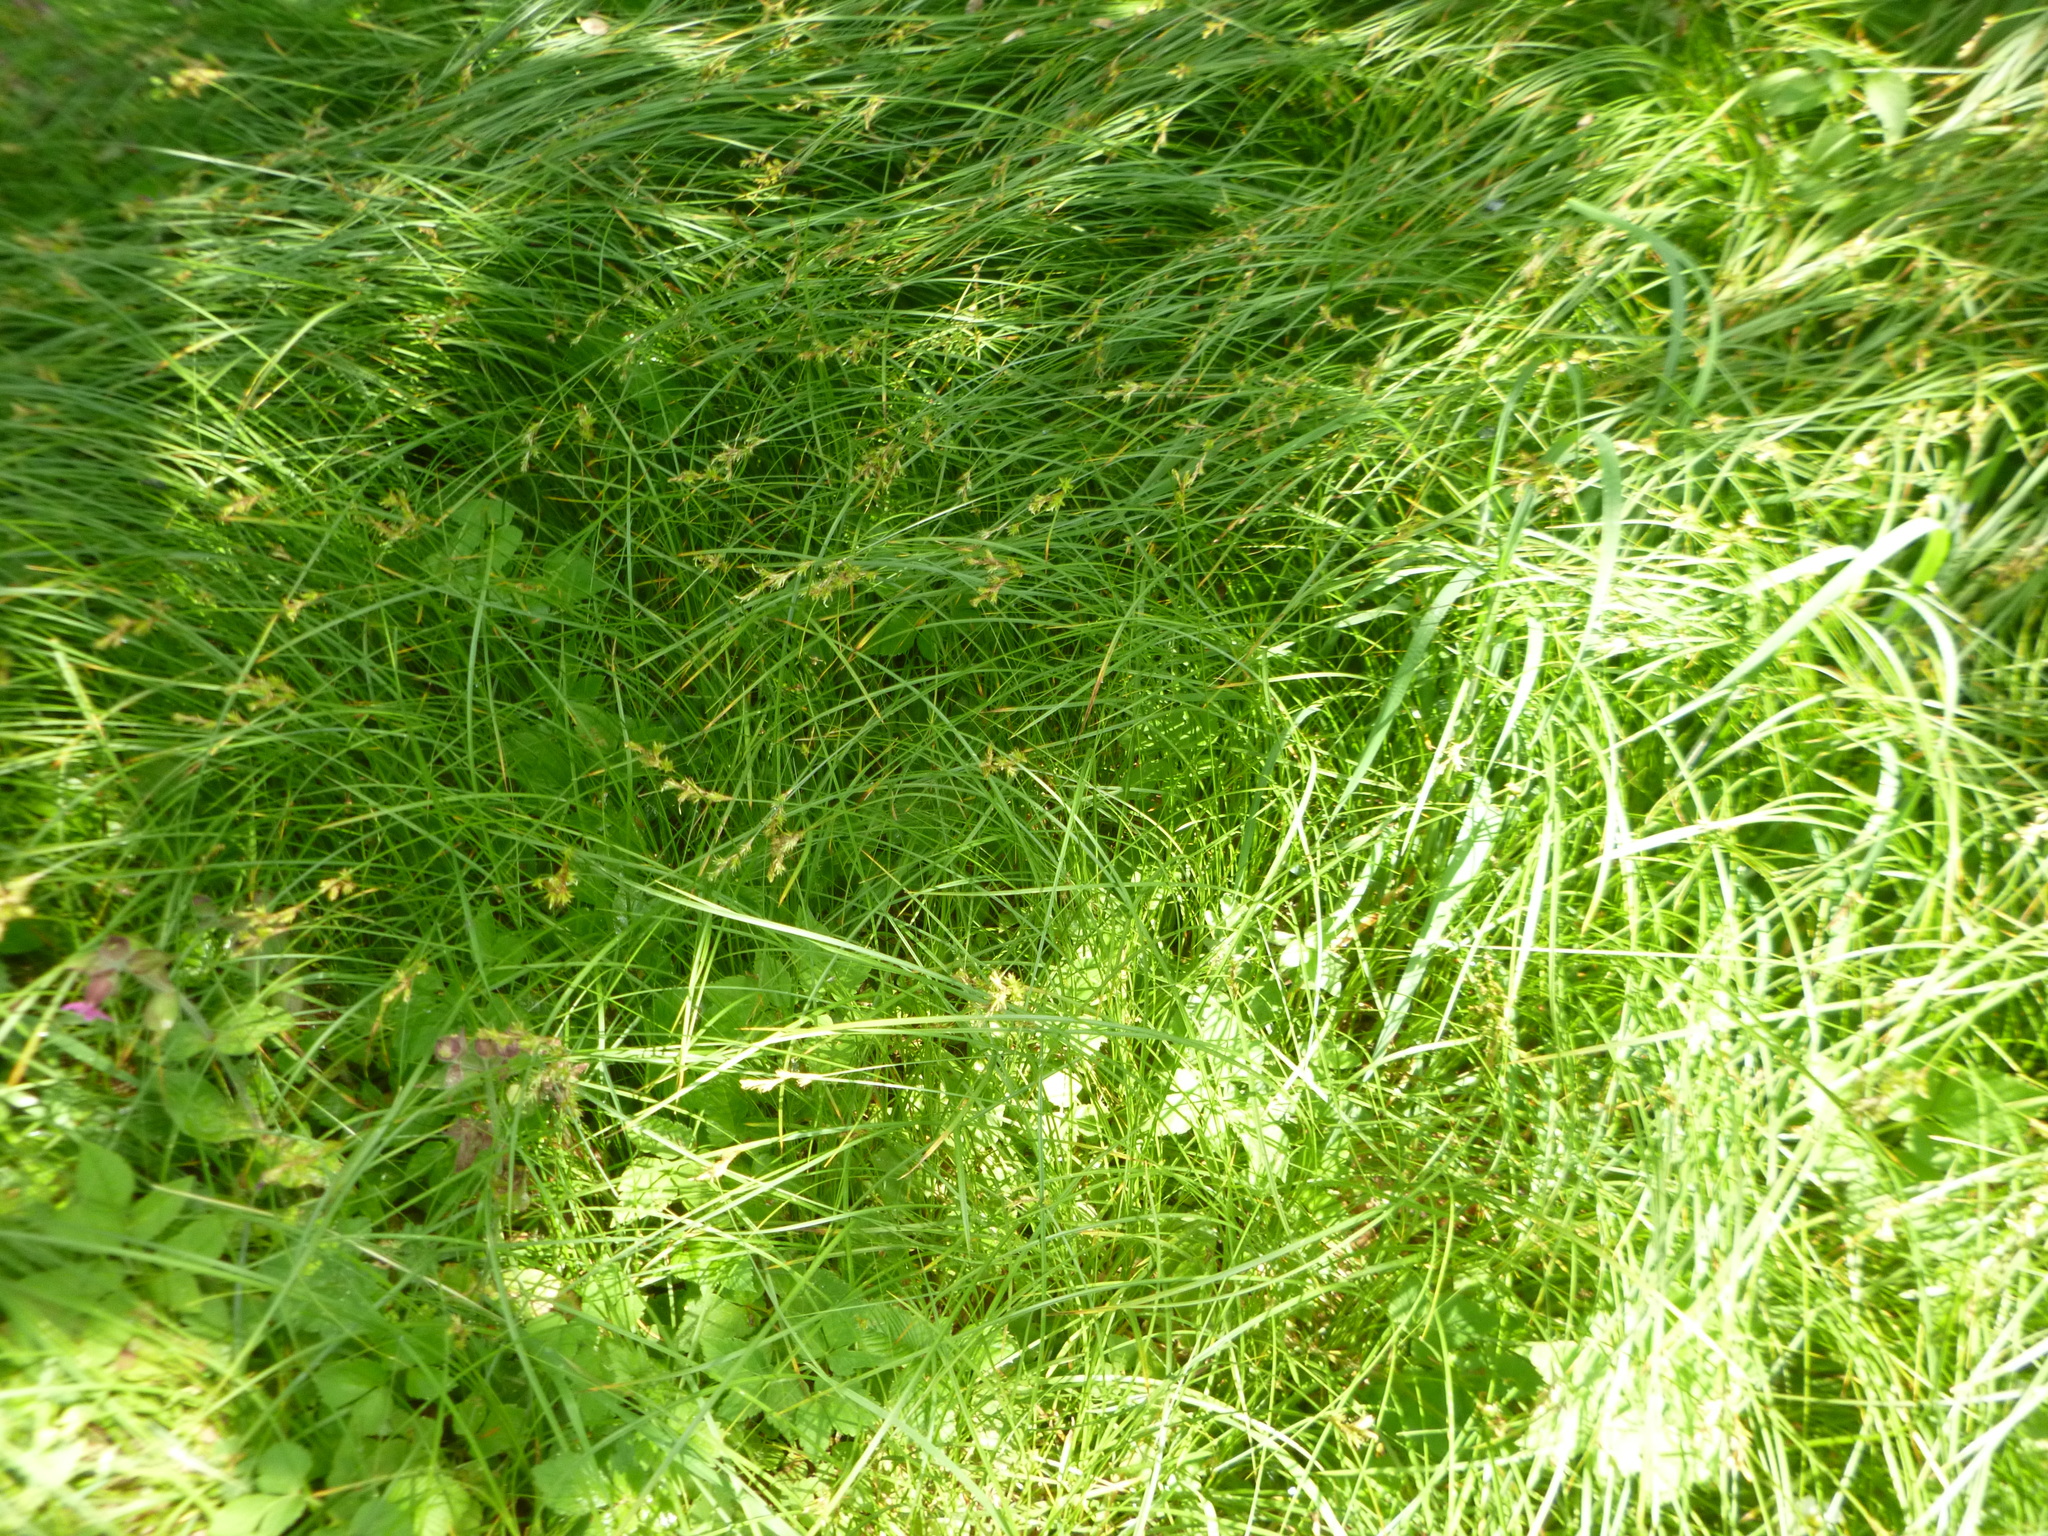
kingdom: Plantae
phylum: Tracheophyta
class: Liliopsida
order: Poales
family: Cyperaceae
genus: Carex
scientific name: Carex brizoides
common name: Quaking-grass sedge
